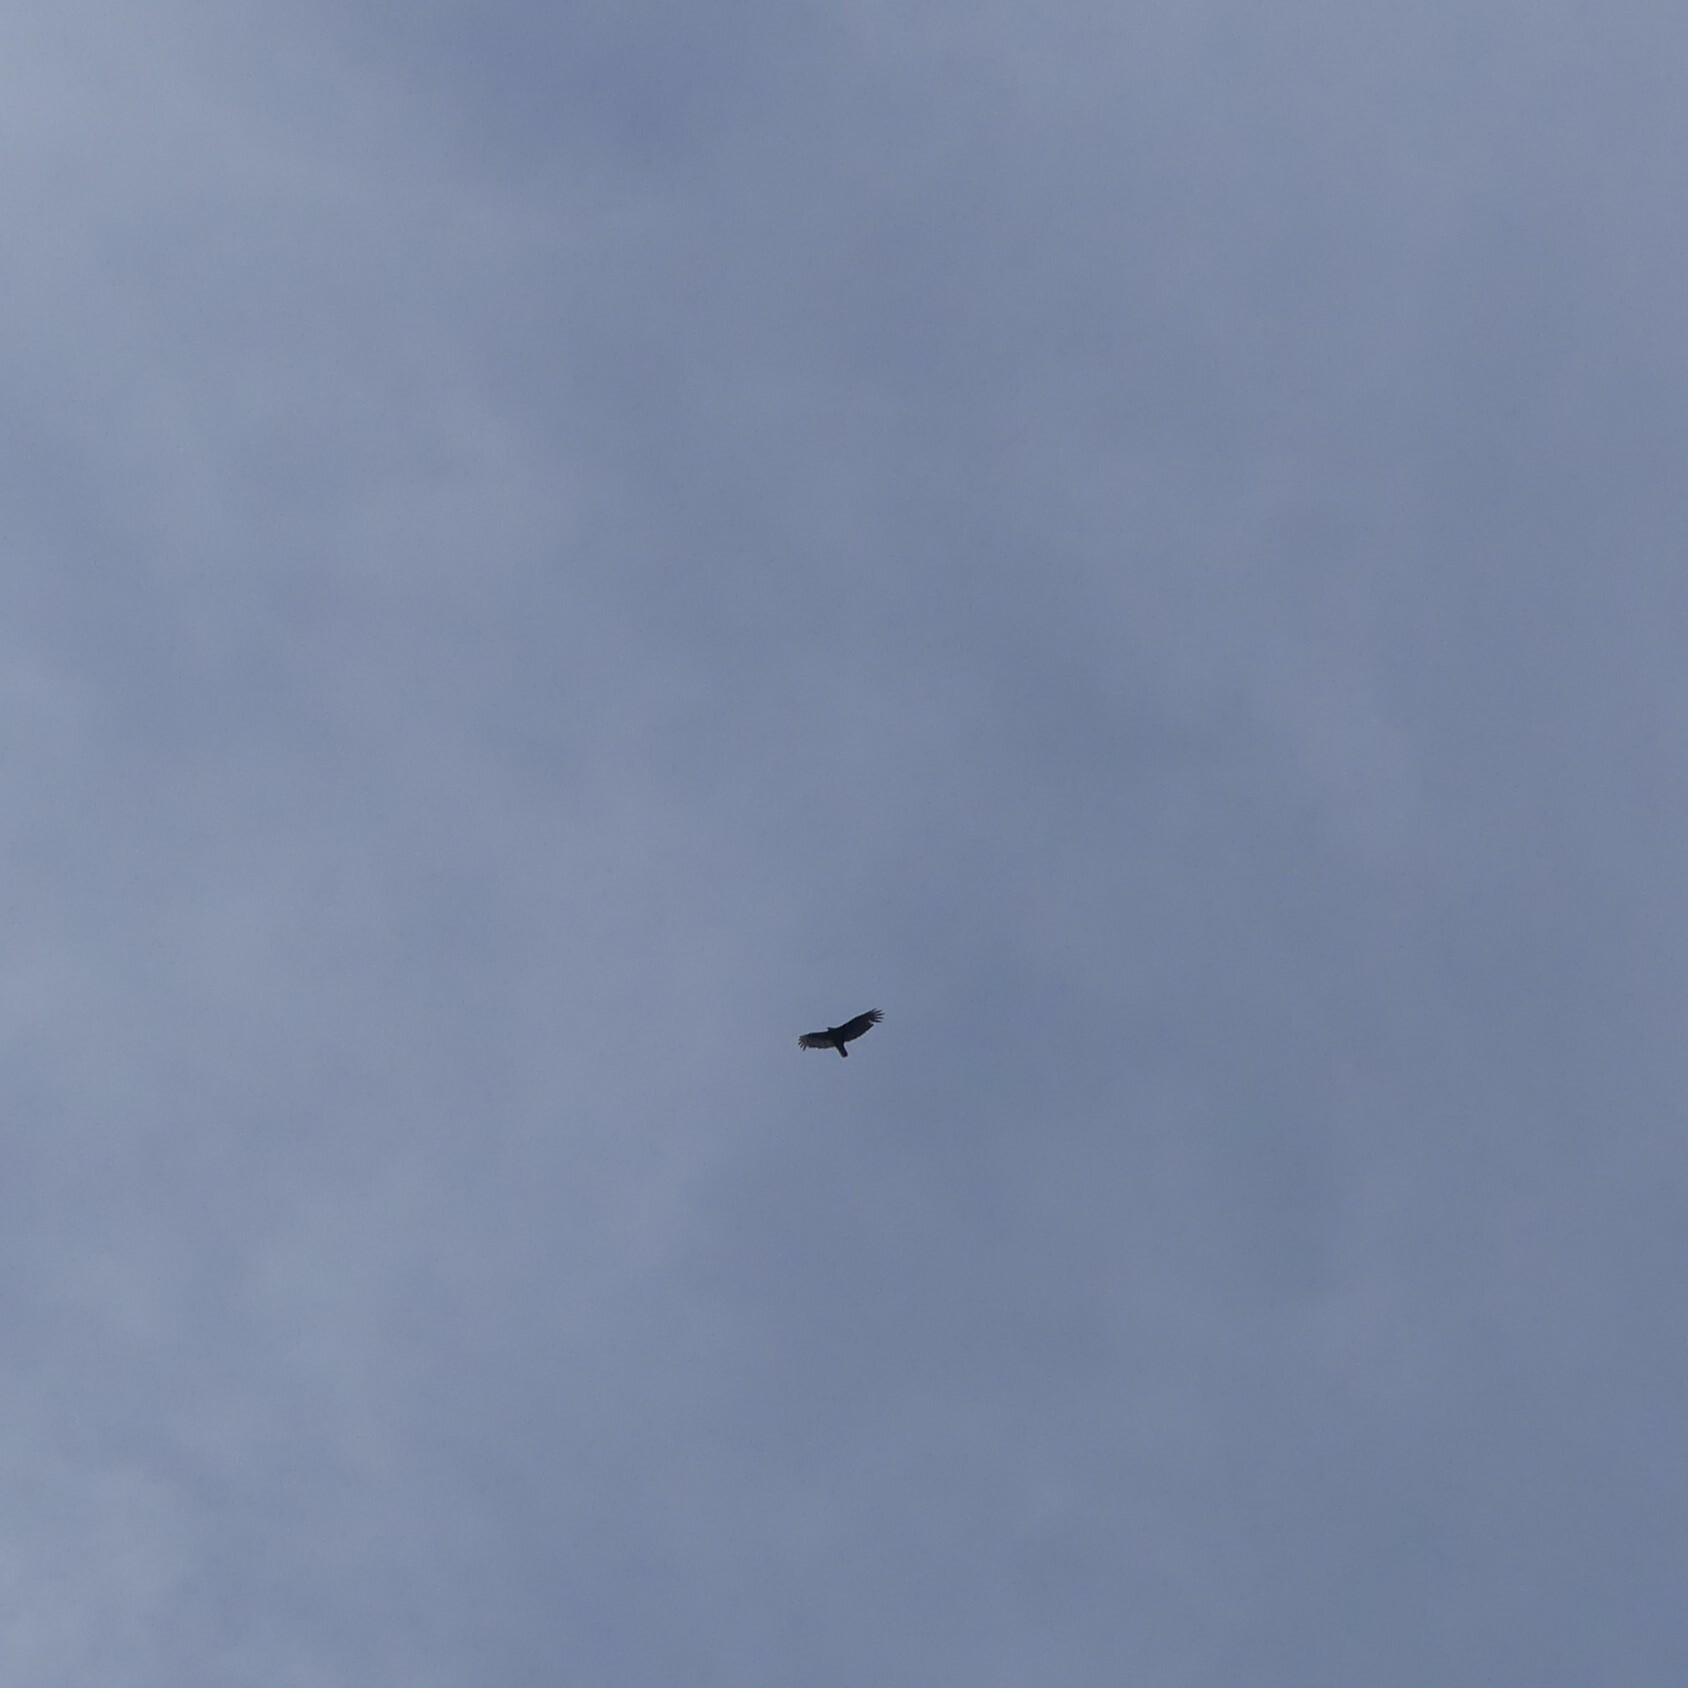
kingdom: Animalia
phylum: Chordata
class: Aves
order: Accipitriformes
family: Cathartidae
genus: Cathartes
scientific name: Cathartes aura
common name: Turkey vulture
